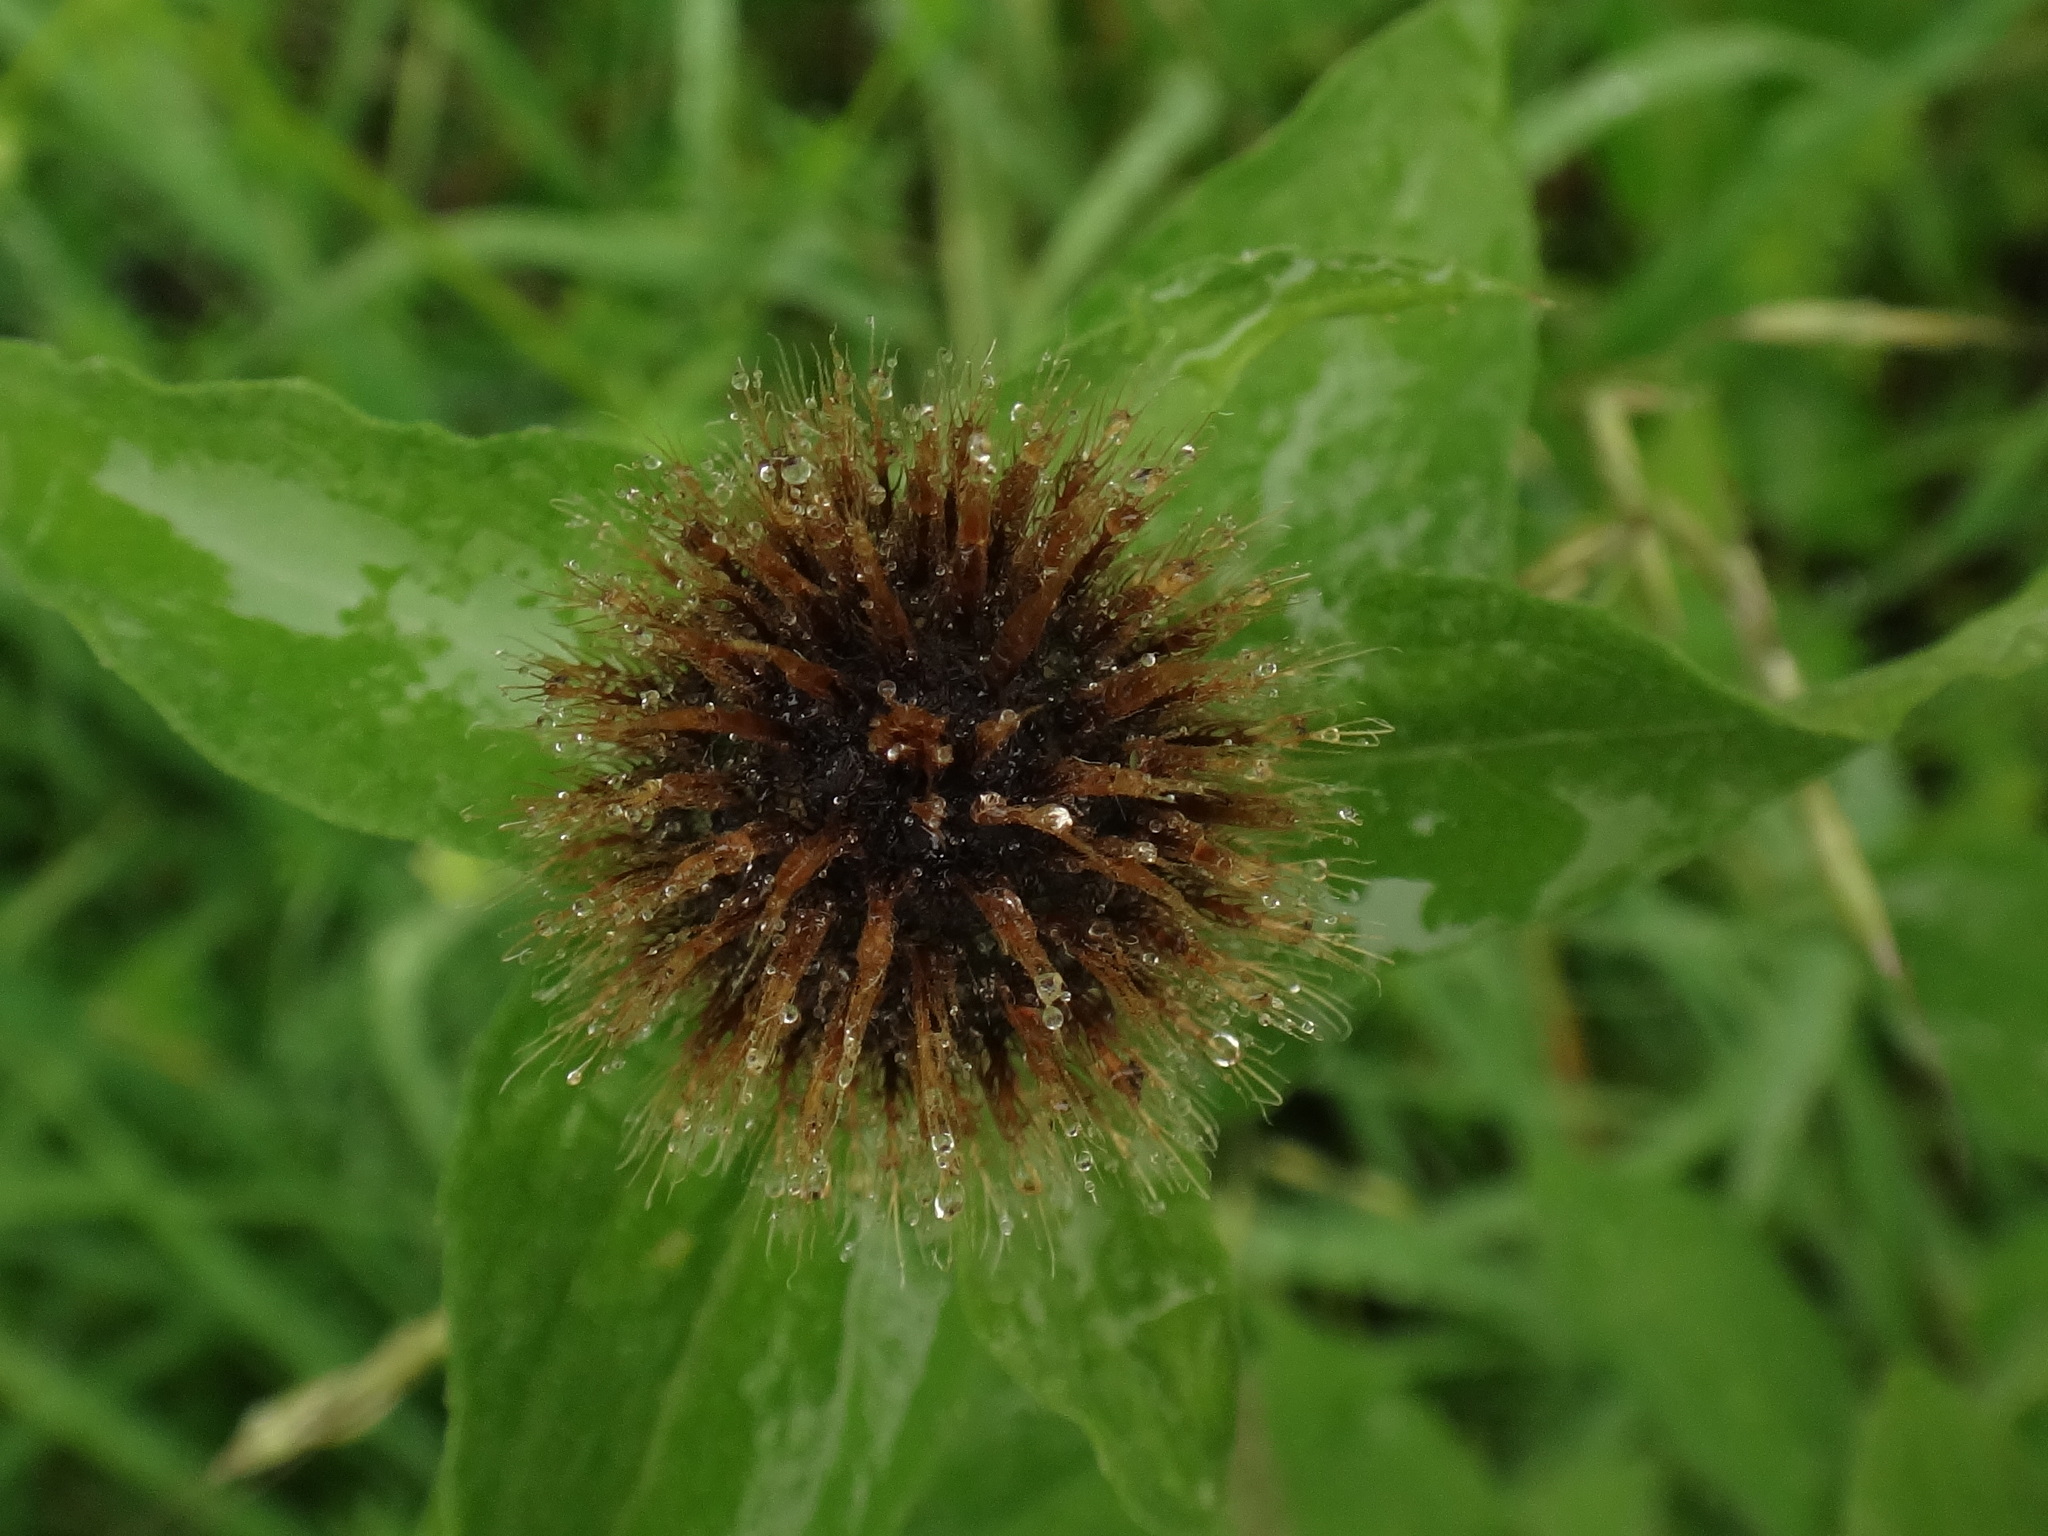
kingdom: Plantae
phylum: Tracheophyta
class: Magnoliopsida
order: Asterales
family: Asteraceae
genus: Centaurea
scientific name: Centaurea pseudophrygia
